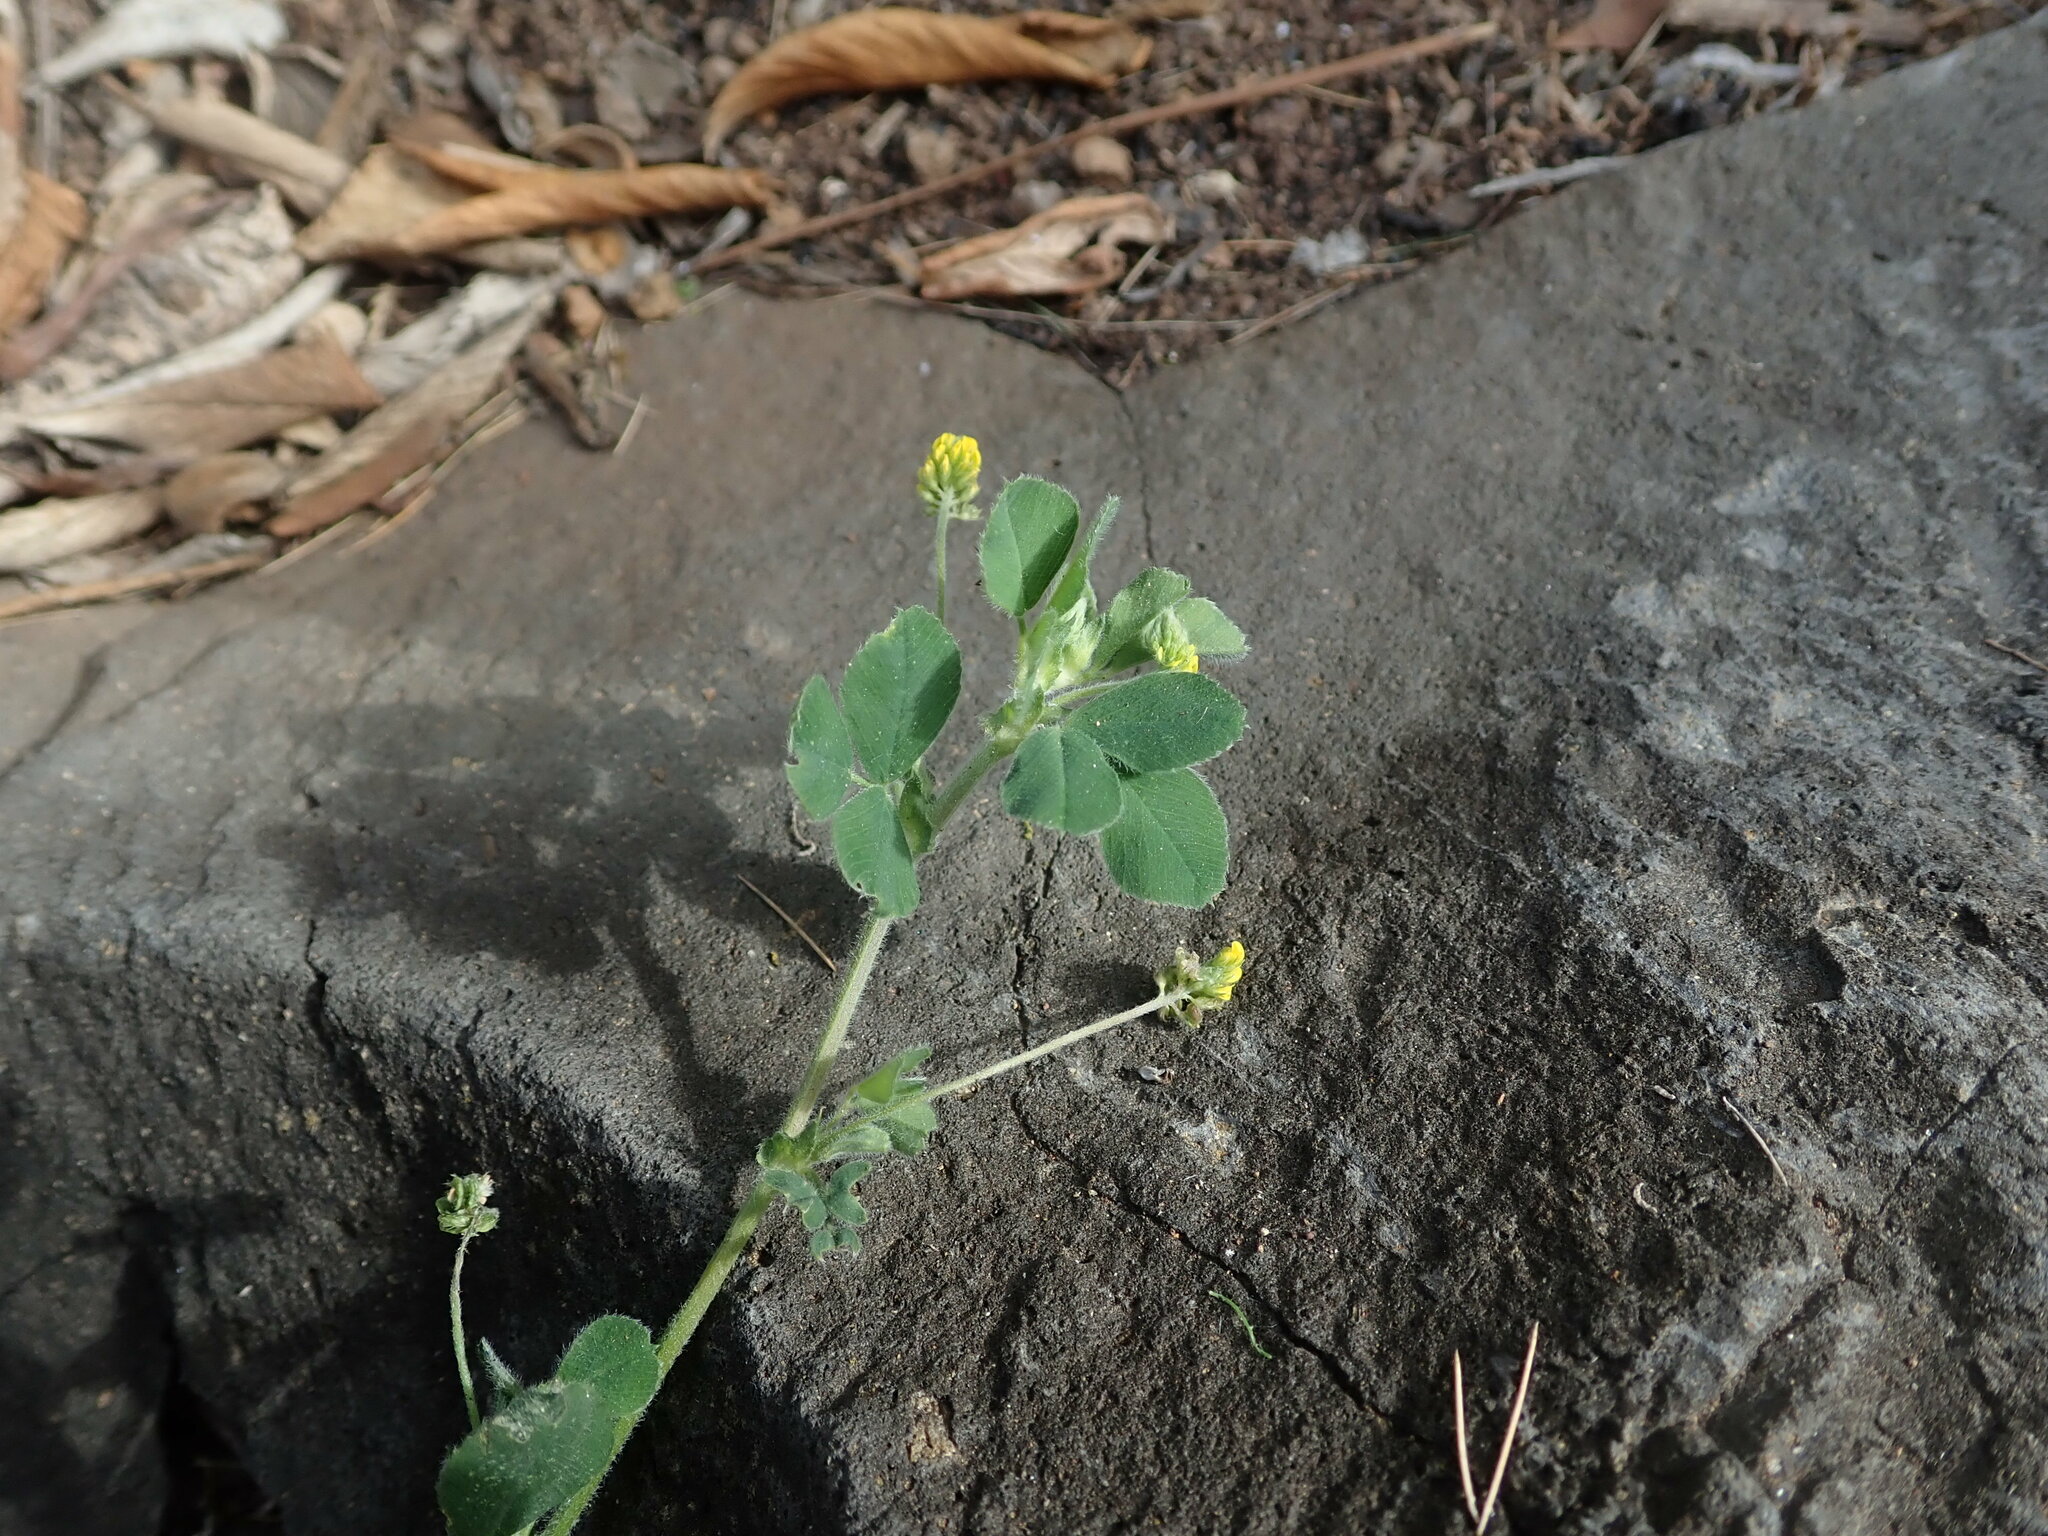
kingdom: Plantae
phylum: Tracheophyta
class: Magnoliopsida
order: Fabales
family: Fabaceae
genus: Medicago
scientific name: Medicago lupulina
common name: Black medick
